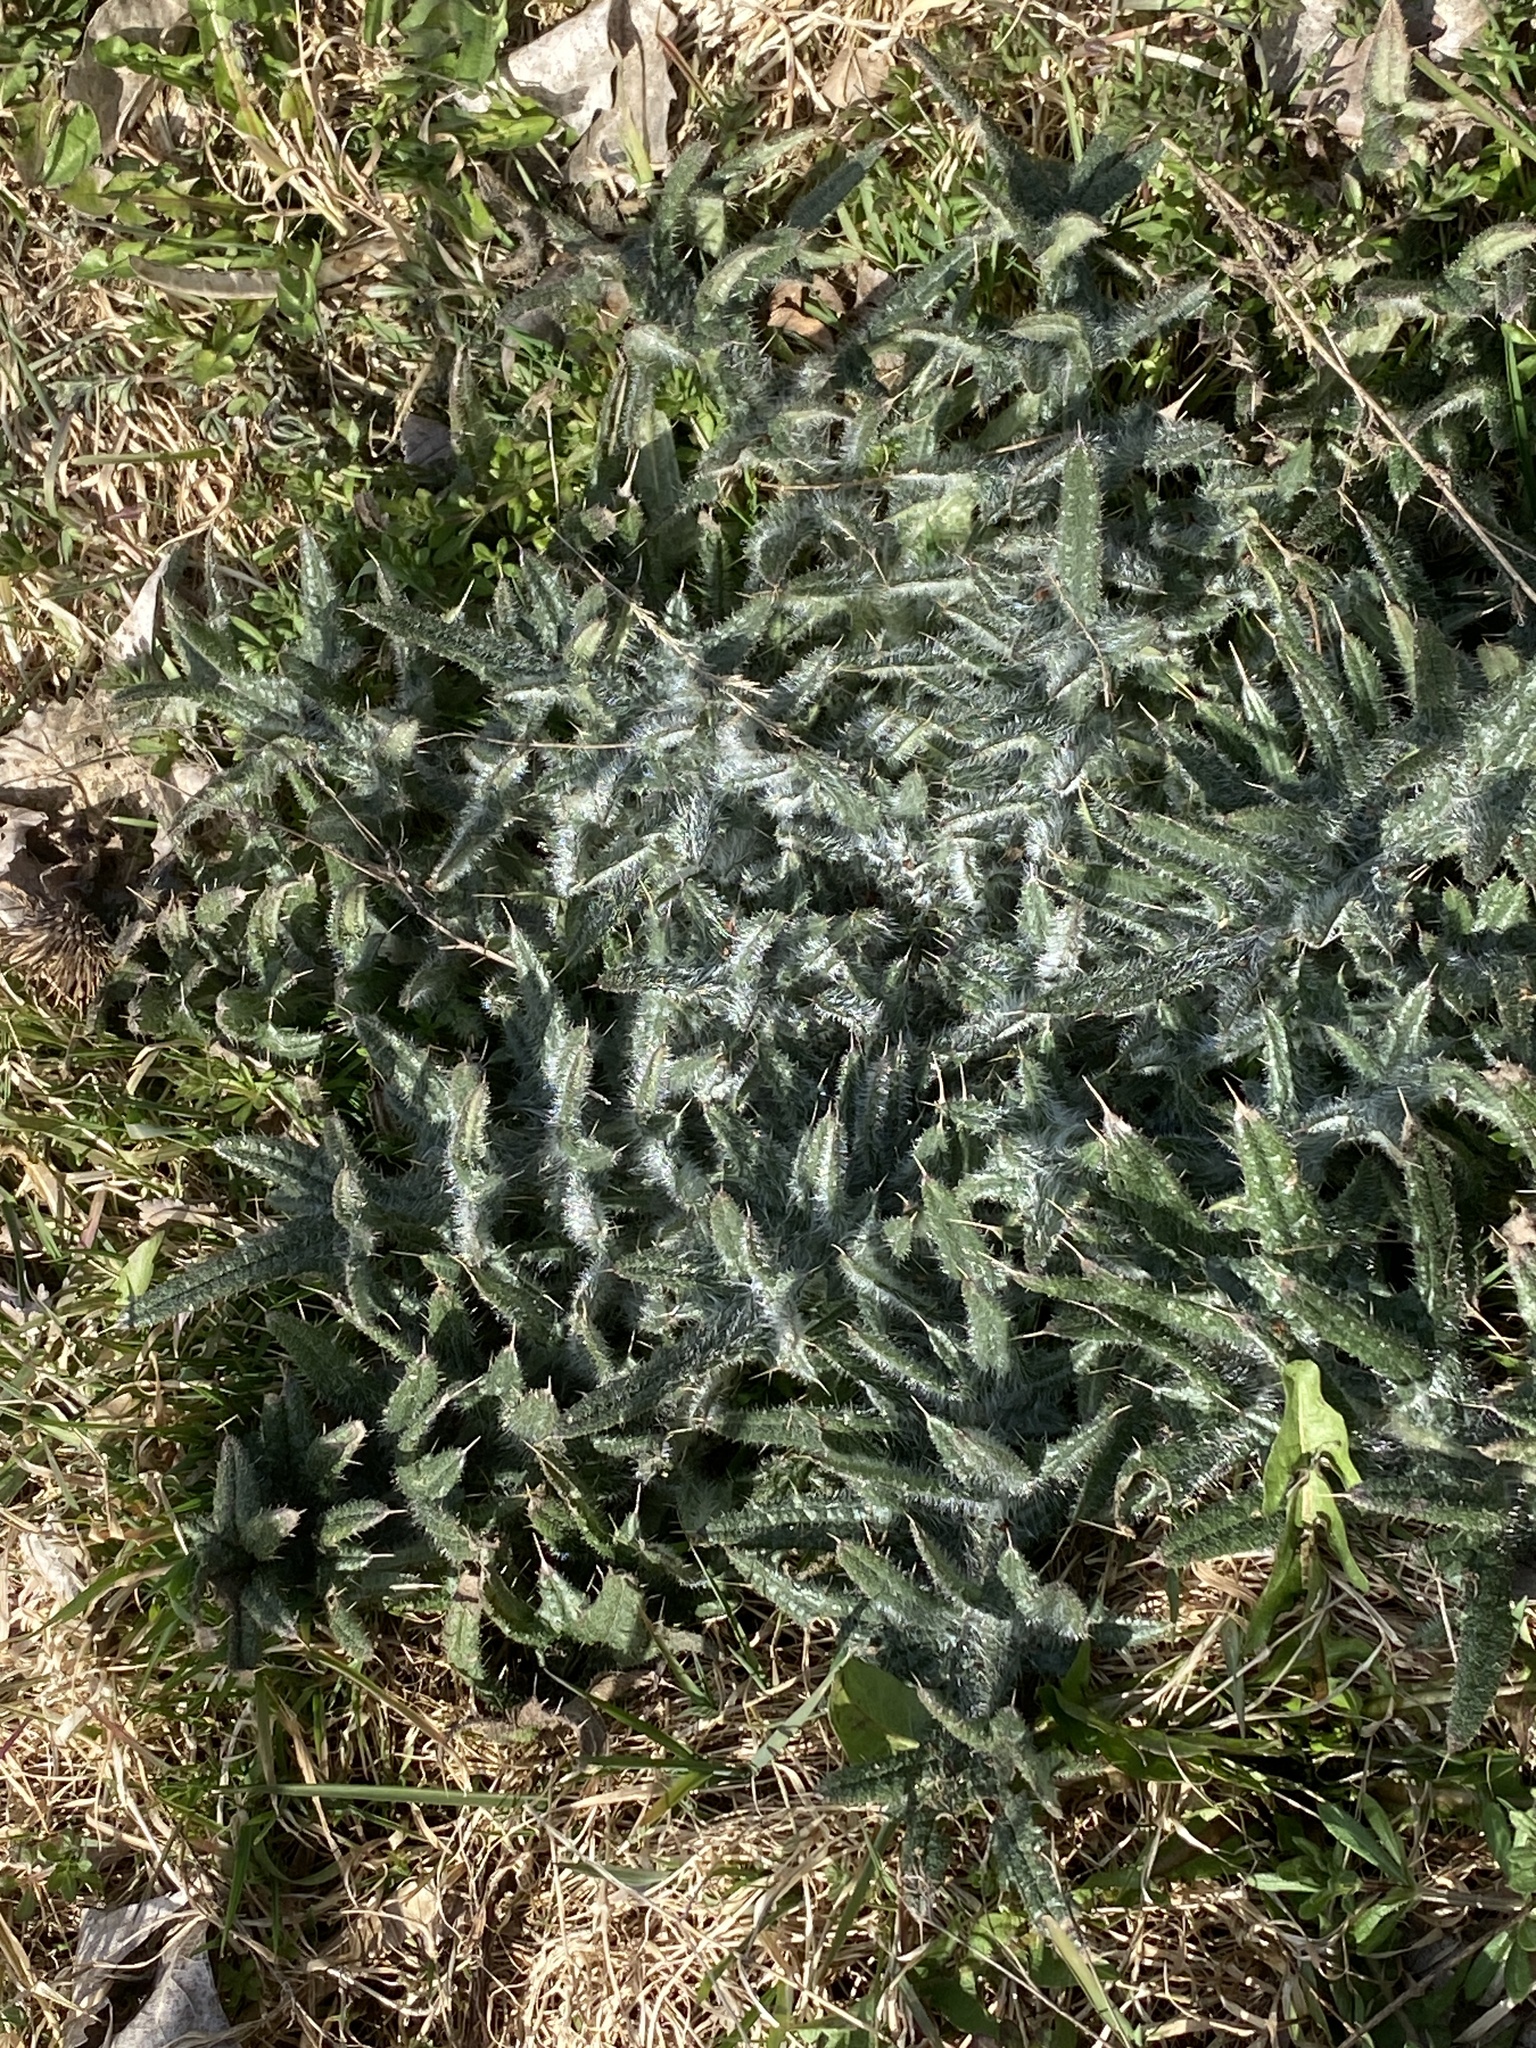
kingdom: Plantae
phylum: Tracheophyta
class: Magnoliopsida
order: Asterales
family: Asteraceae
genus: Cirsium
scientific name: Cirsium vulgare
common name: Bull thistle
